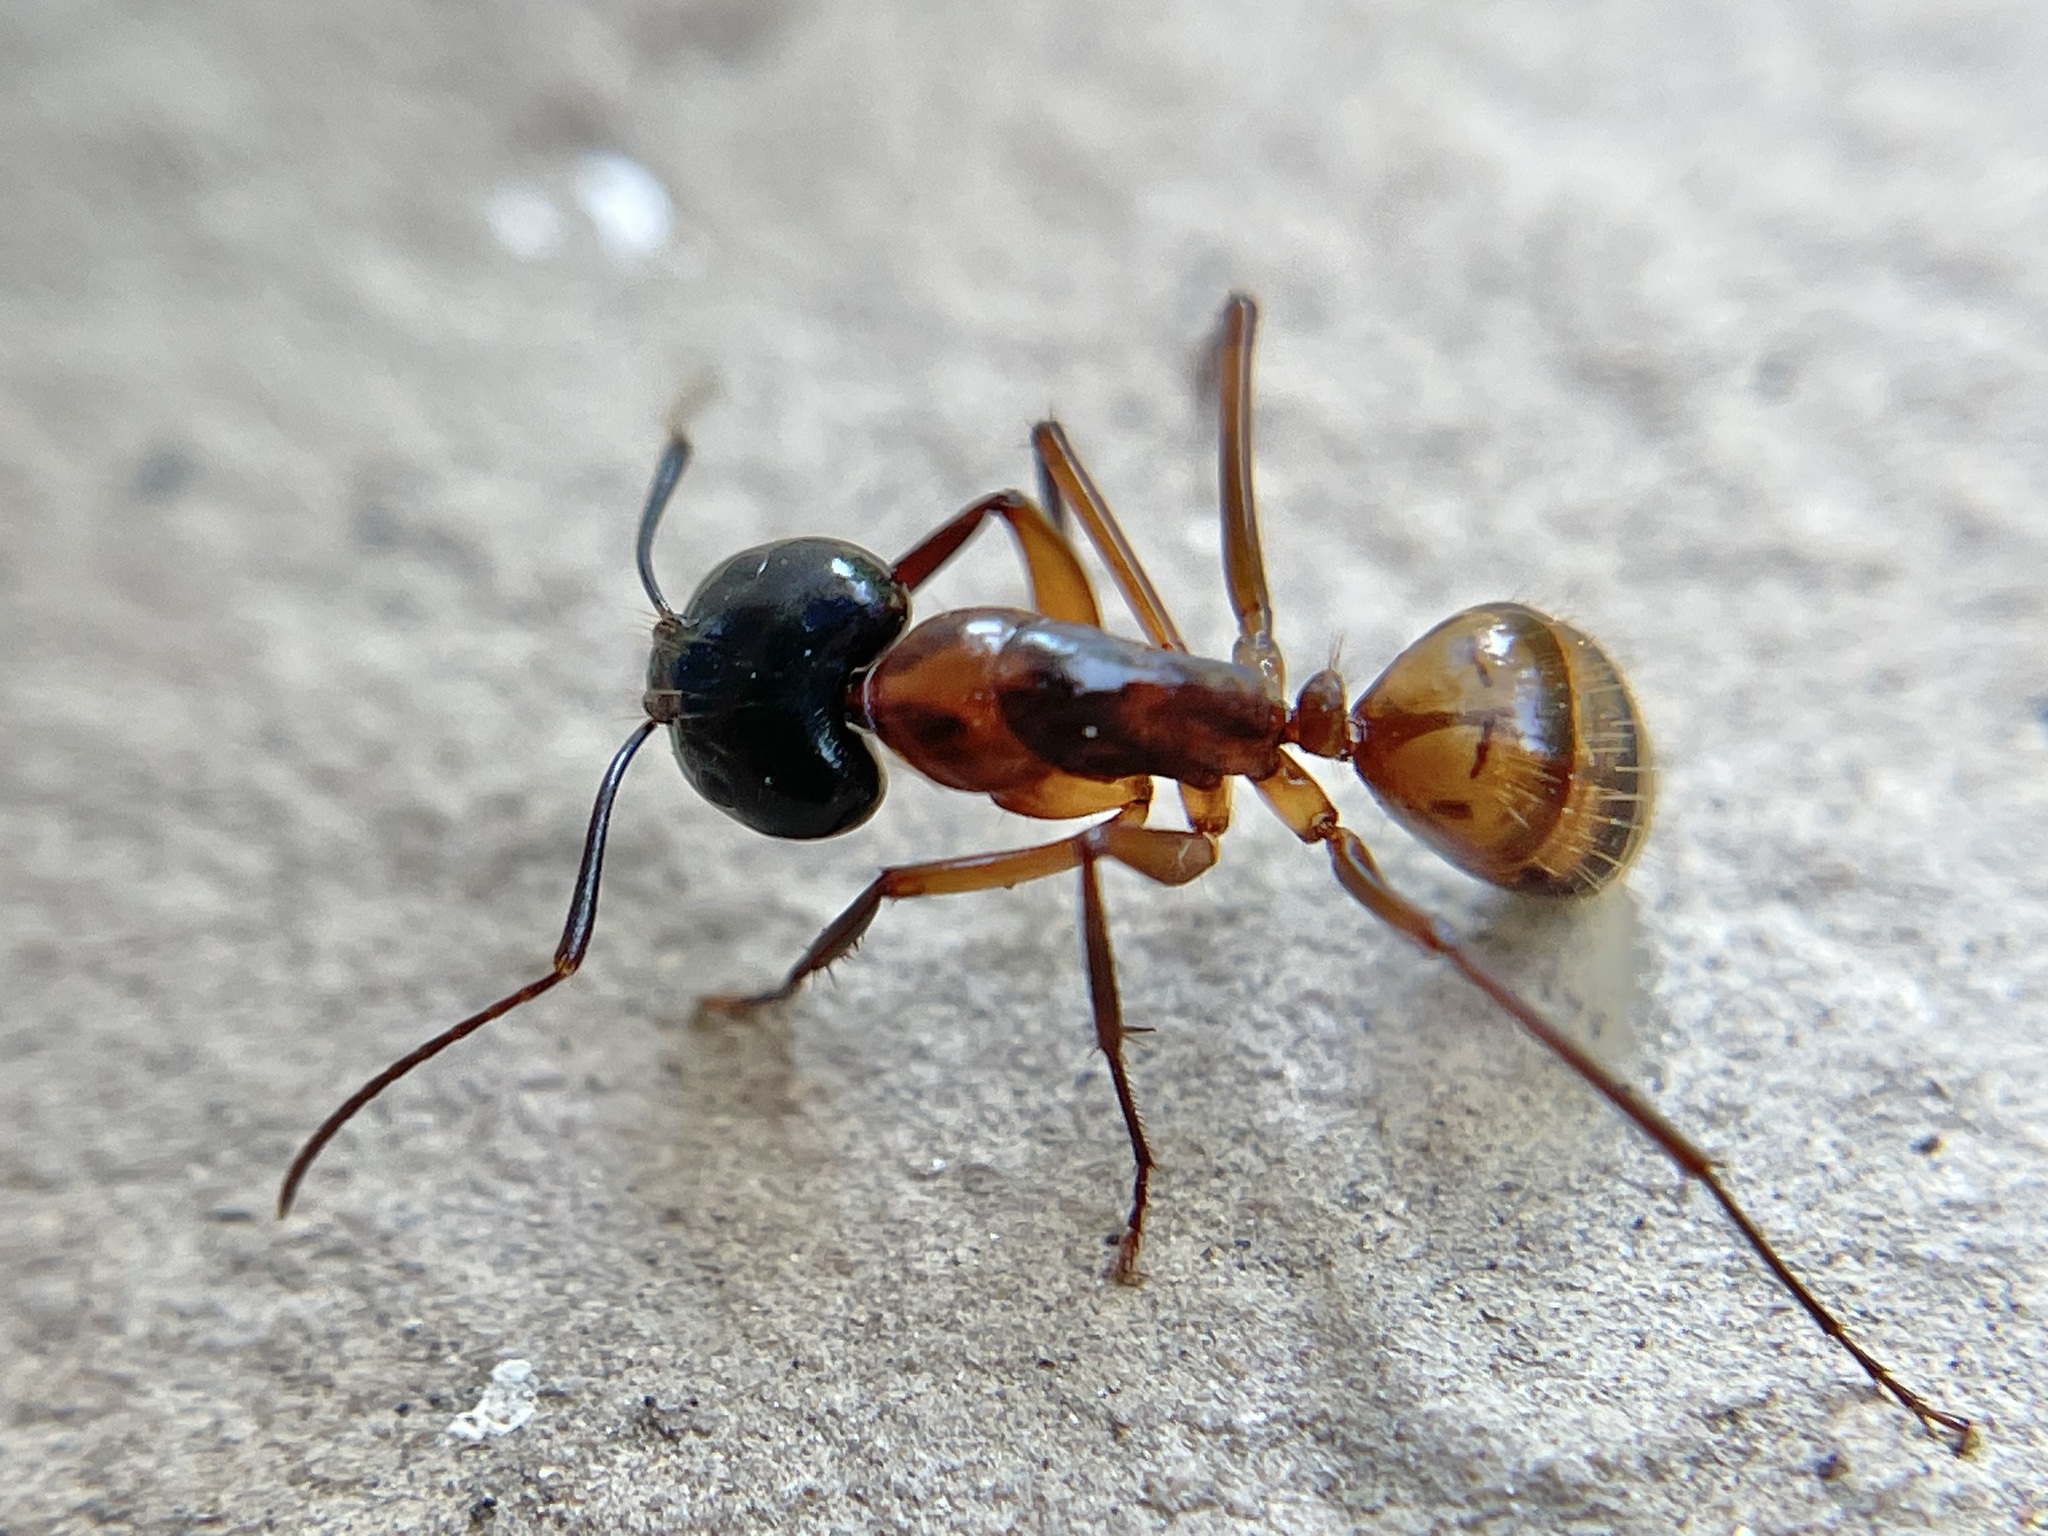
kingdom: Animalia
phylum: Arthropoda
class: Insecta
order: Hymenoptera
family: Formicidae
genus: Camponotus
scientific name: Camponotus americanus
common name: American carpenter ant
